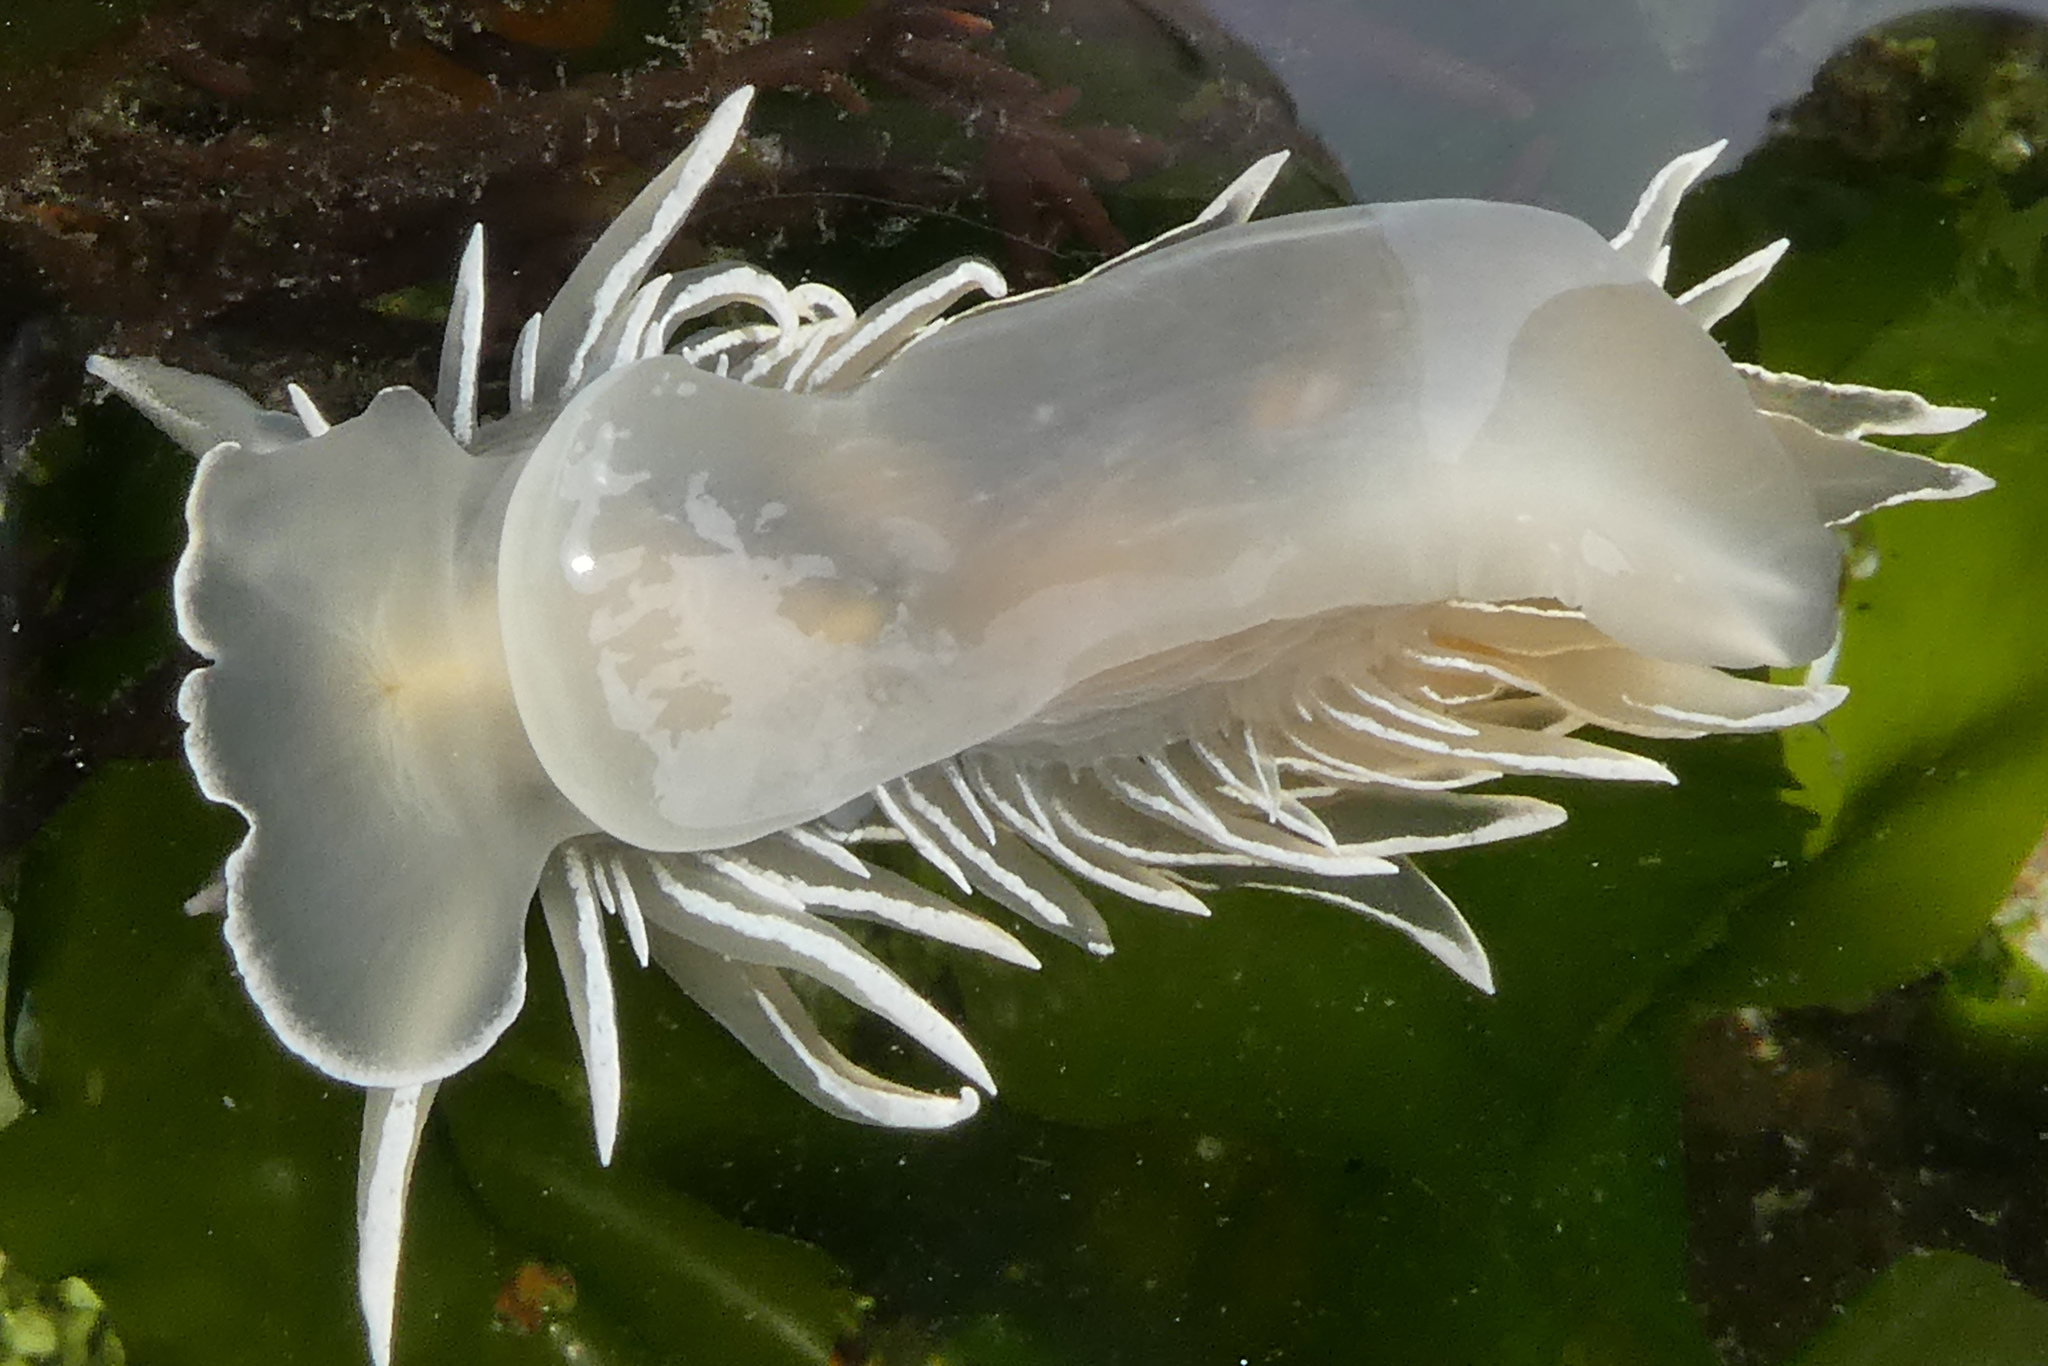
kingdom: Animalia
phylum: Mollusca
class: Gastropoda
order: Nudibranchia
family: Dironidae
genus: Dirona
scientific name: Dirona albolineata
